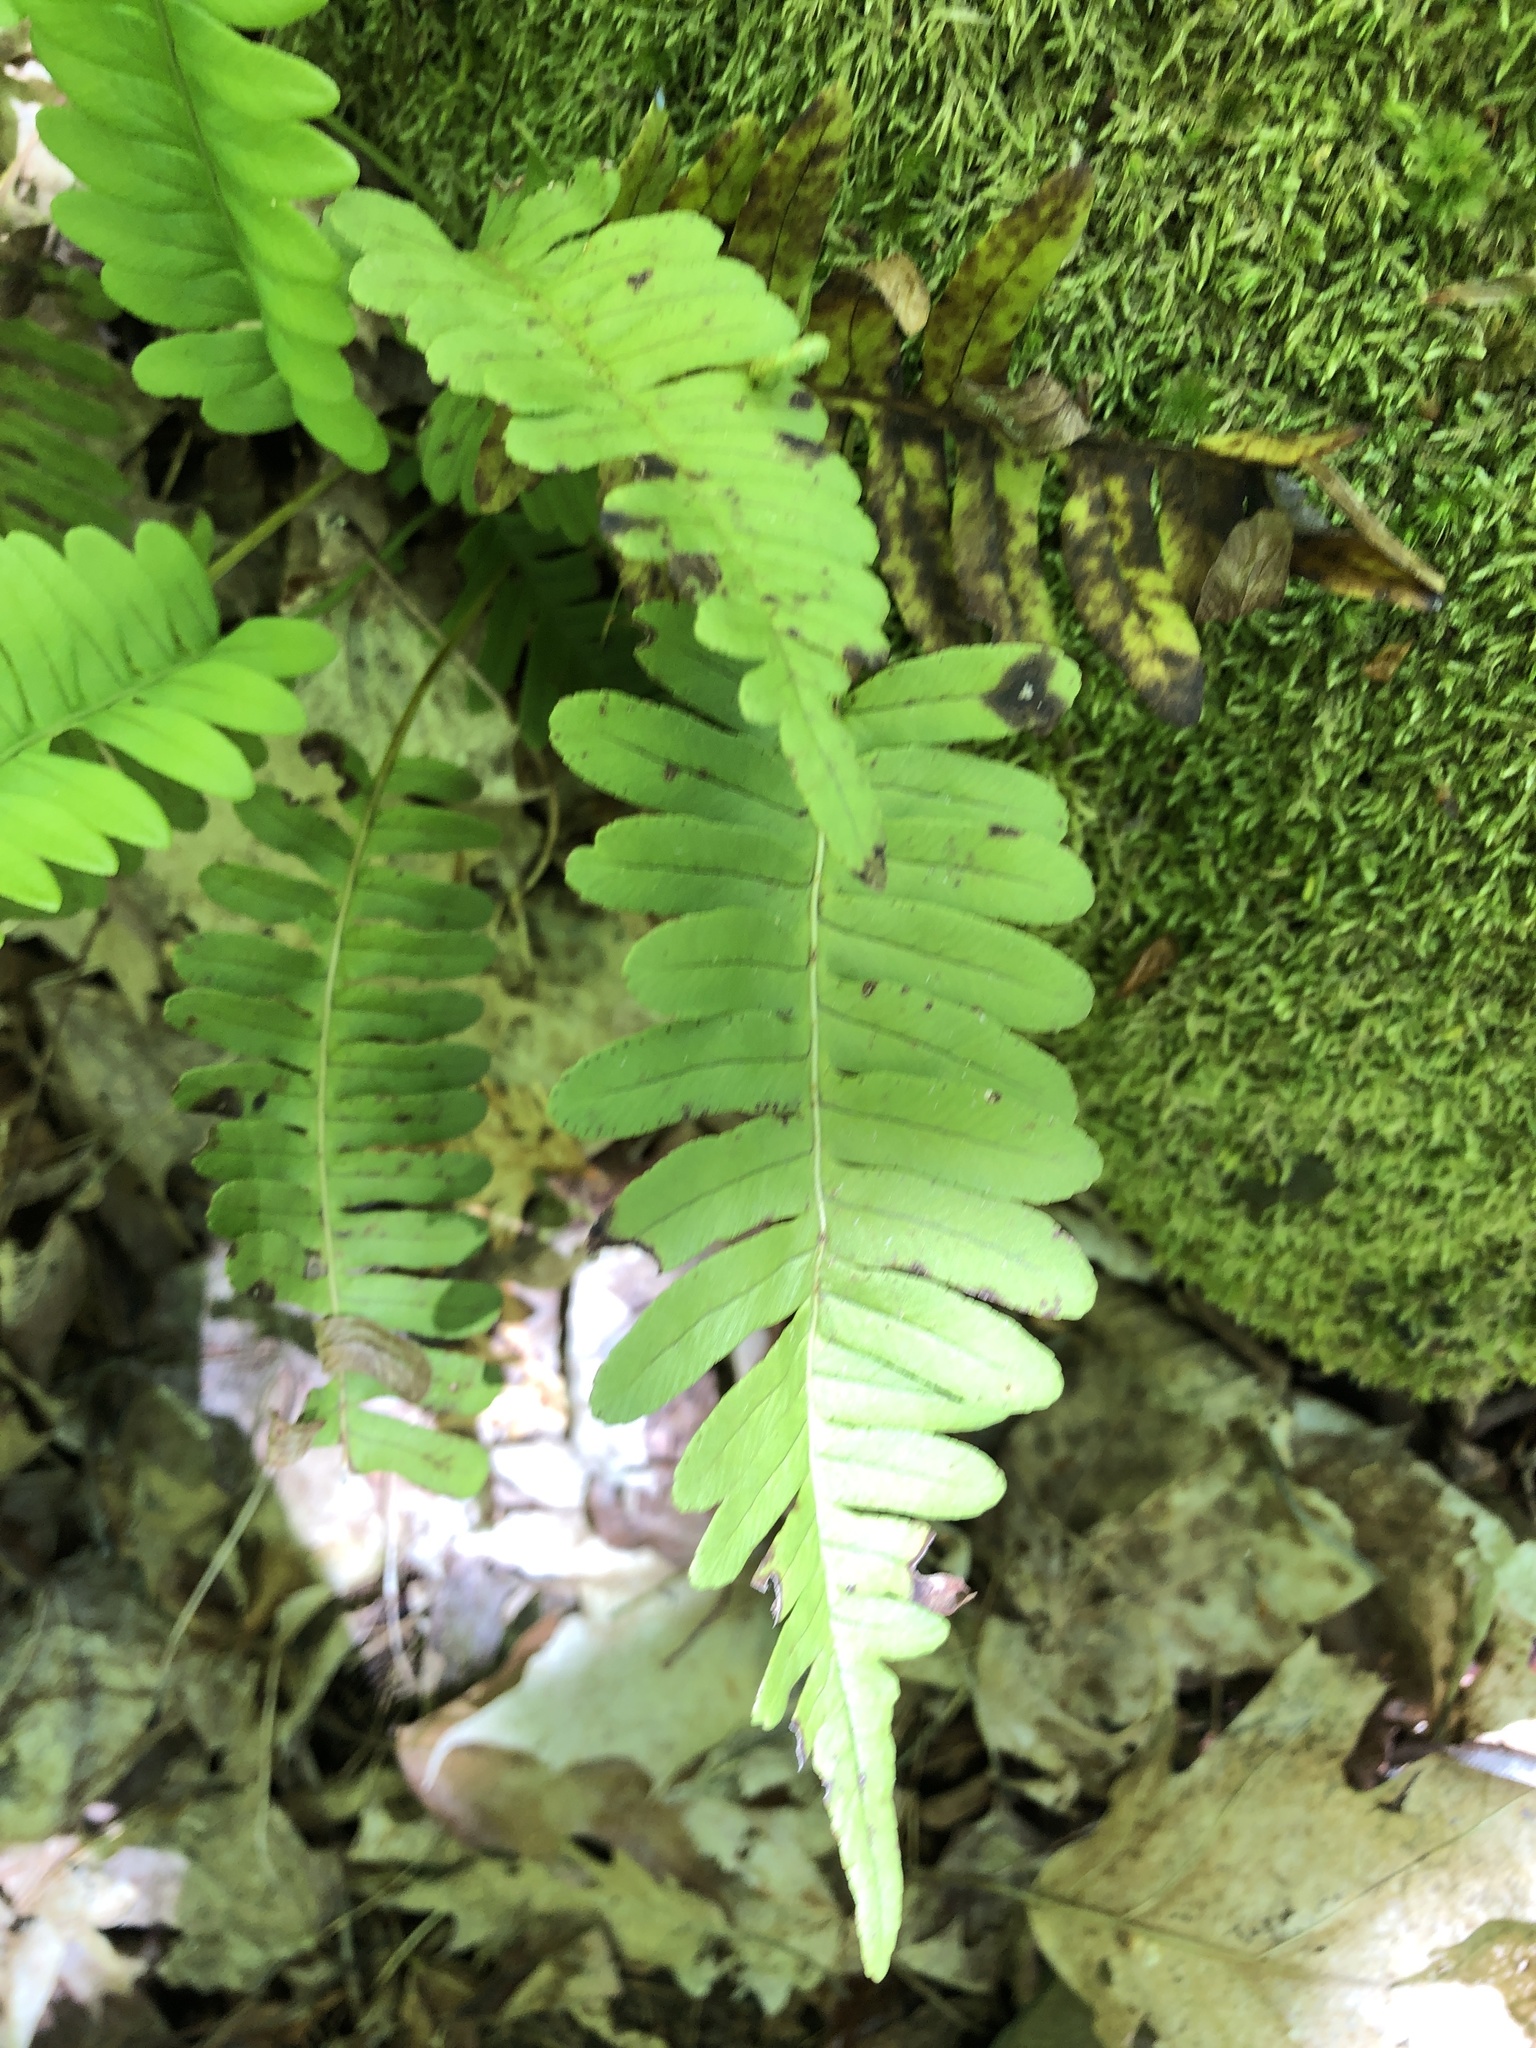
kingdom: Plantae
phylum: Tracheophyta
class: Polypodiopsida
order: Polypodiales
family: Polypodiaceae
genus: Polypodium
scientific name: Polypodium virginianum
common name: American wall fern
